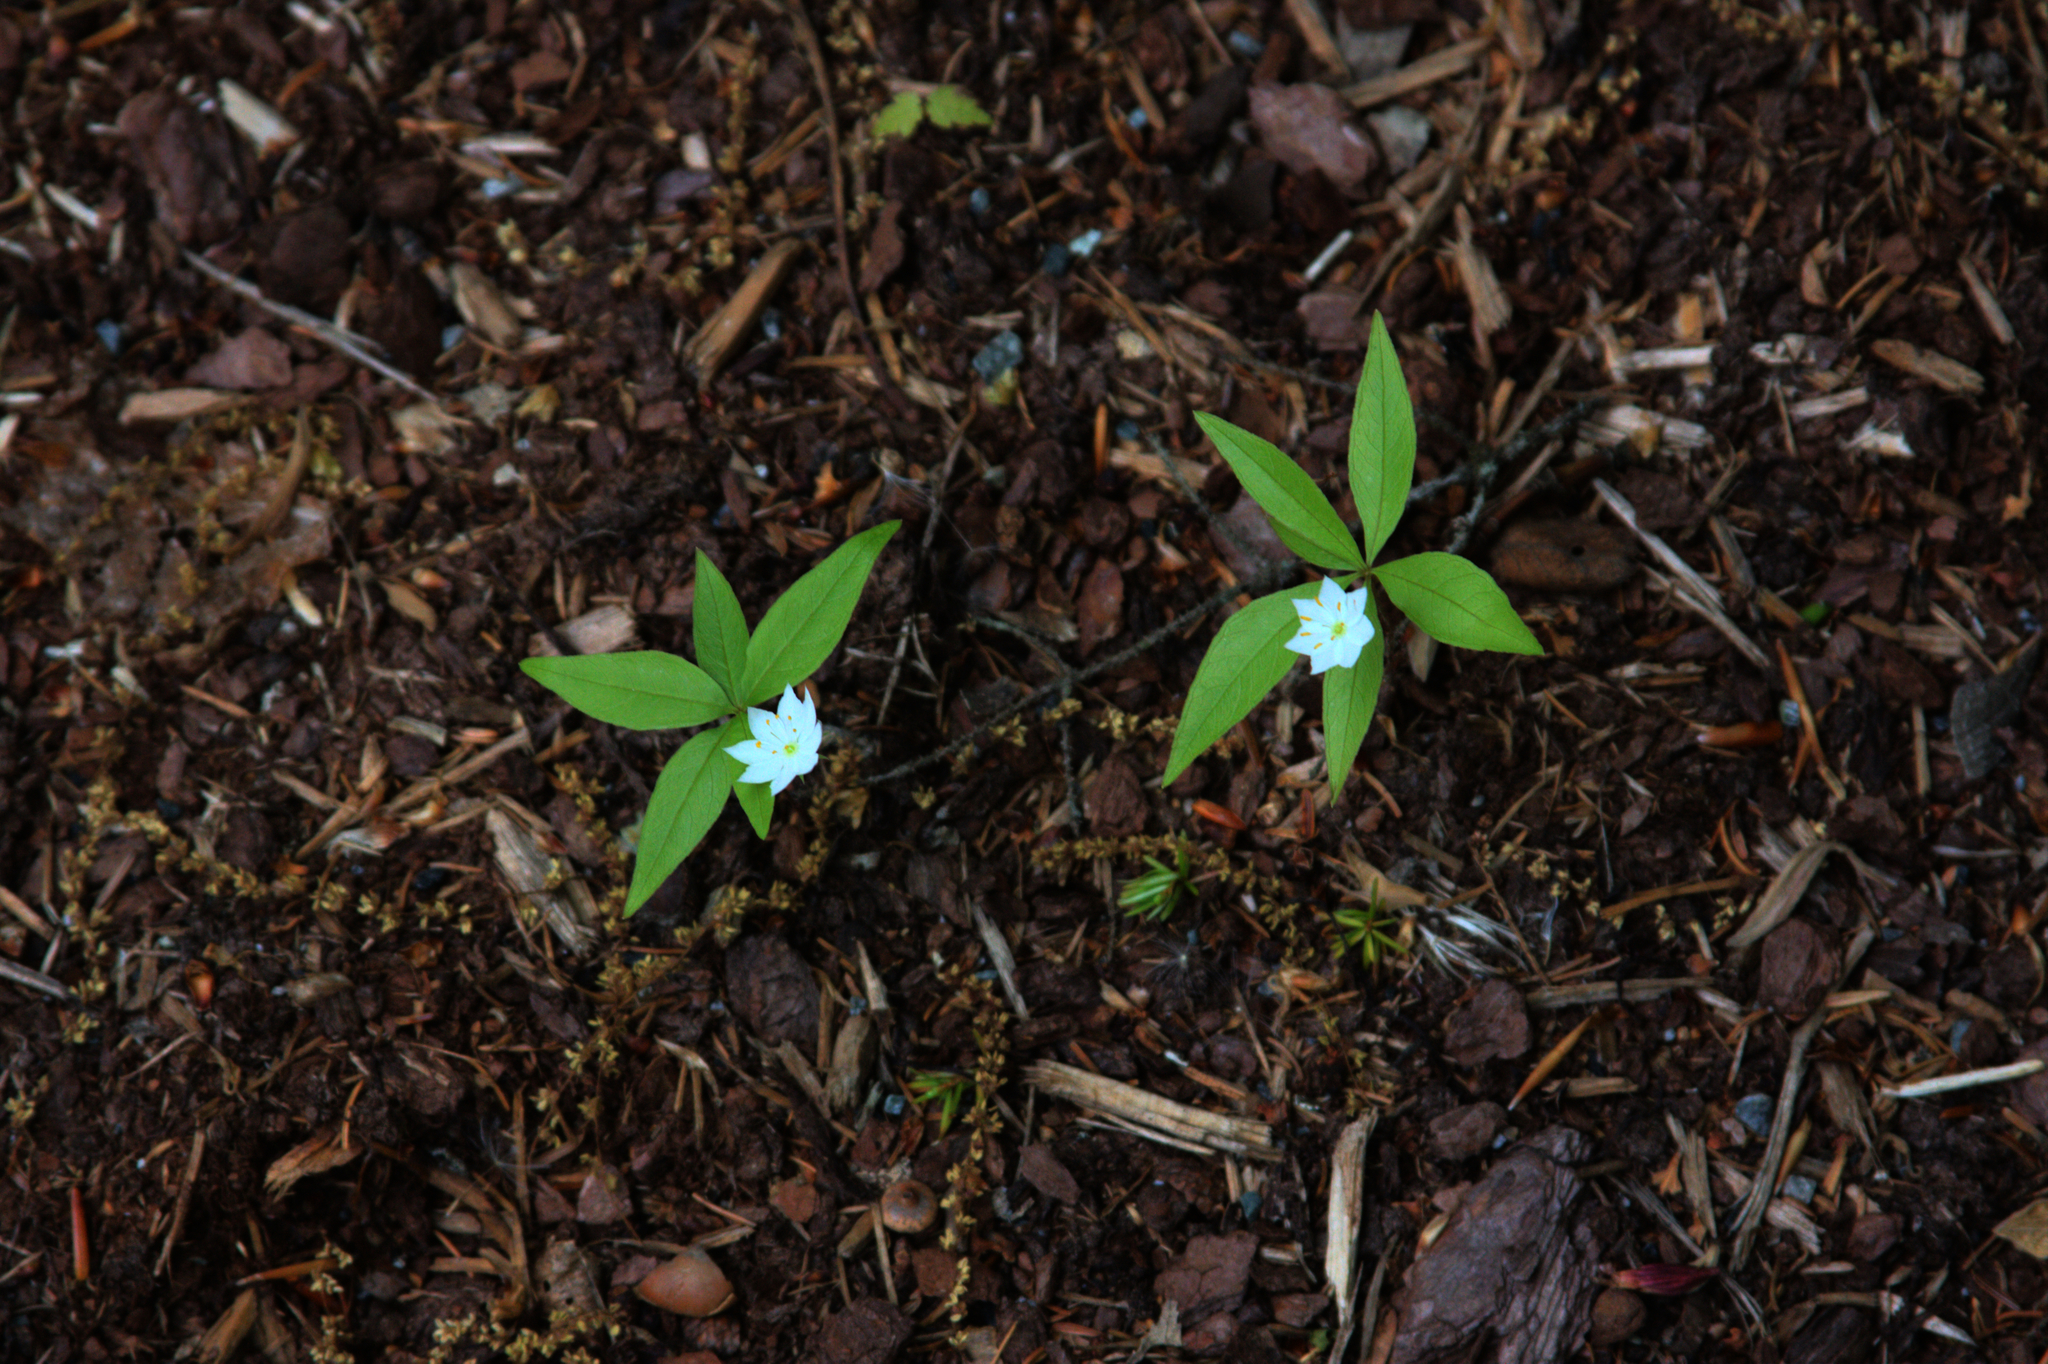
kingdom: Plantae
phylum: Tracheophyta
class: Magnoliopsida
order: Ericales
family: Primulaceae
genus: Lysimachia
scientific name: Lysimachia borealis
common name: American starflower
